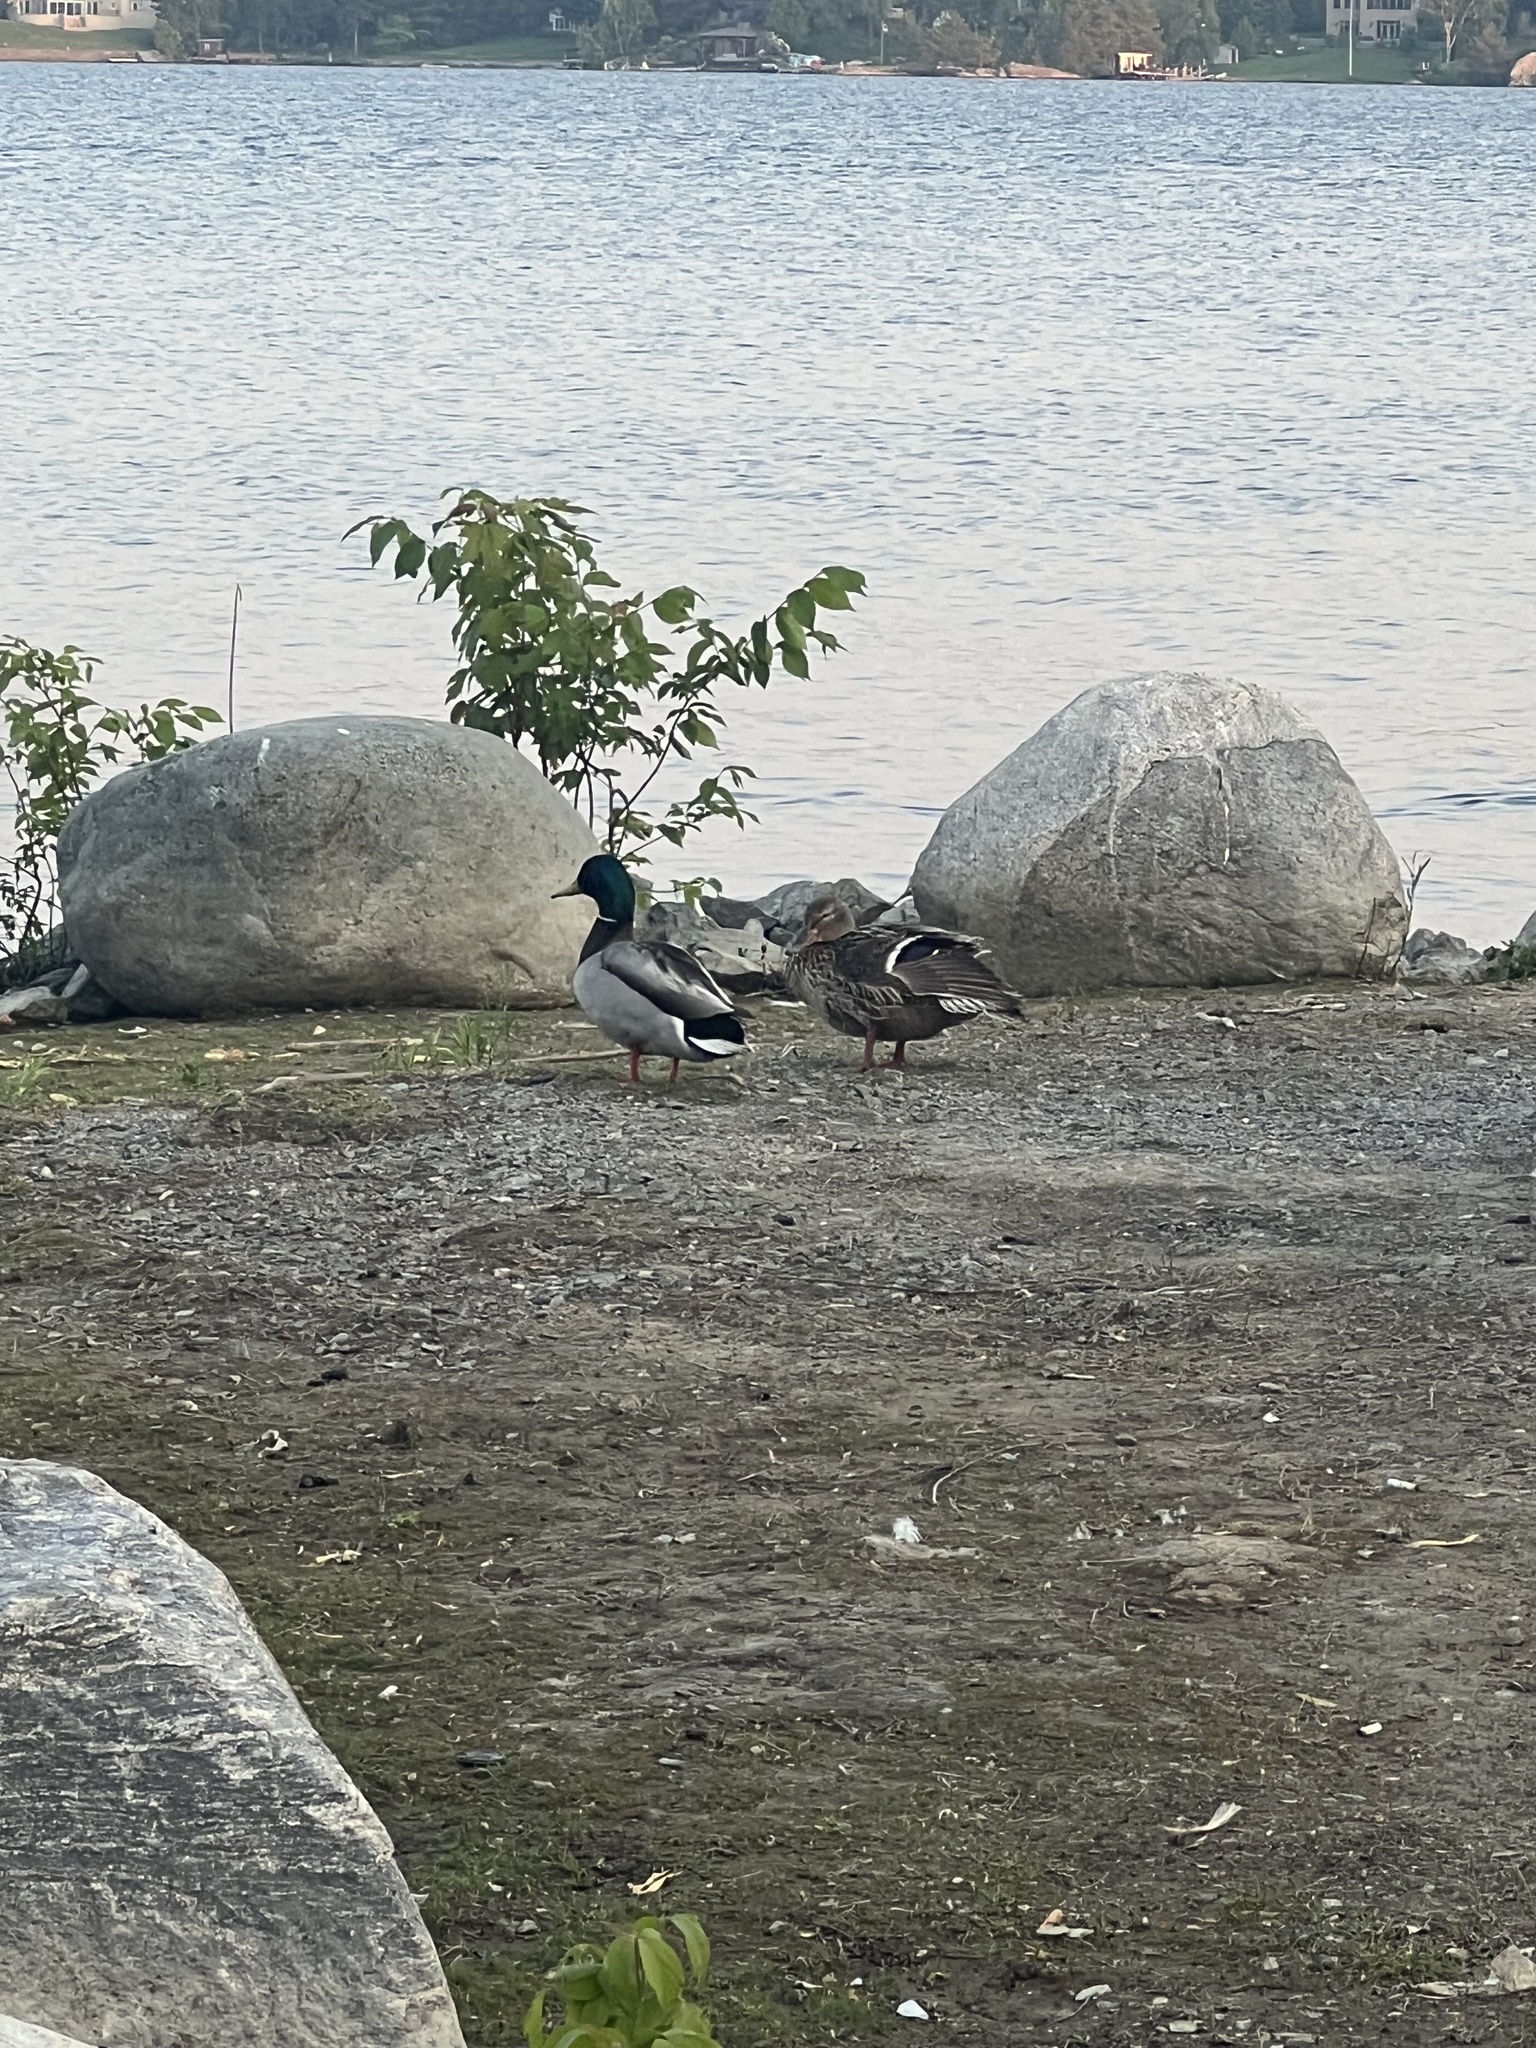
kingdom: Animalia
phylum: Chordata
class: Aves
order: Anseriformes
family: Anatidae
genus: Anas
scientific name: Anas platyrhynchos
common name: Mallard
